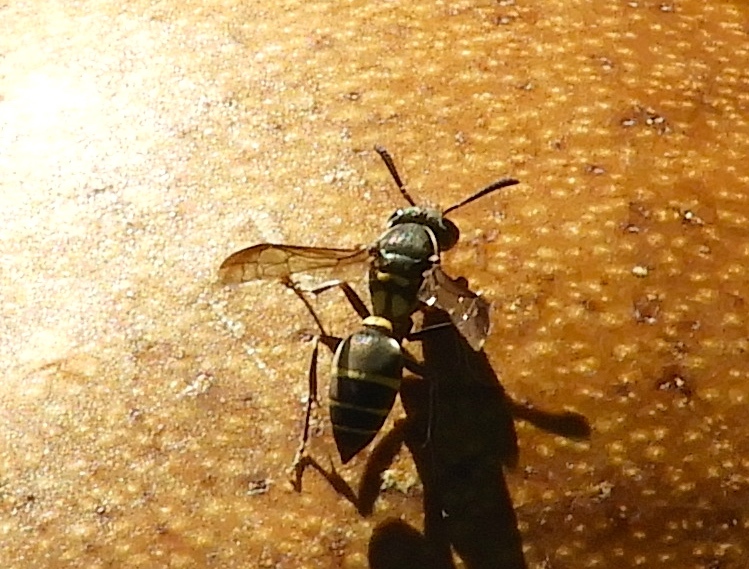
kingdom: Animalia
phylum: Arthropoda
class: Insecta
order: Hymenoptera
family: Vespidae
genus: Myrapetra
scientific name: Myrapetra
